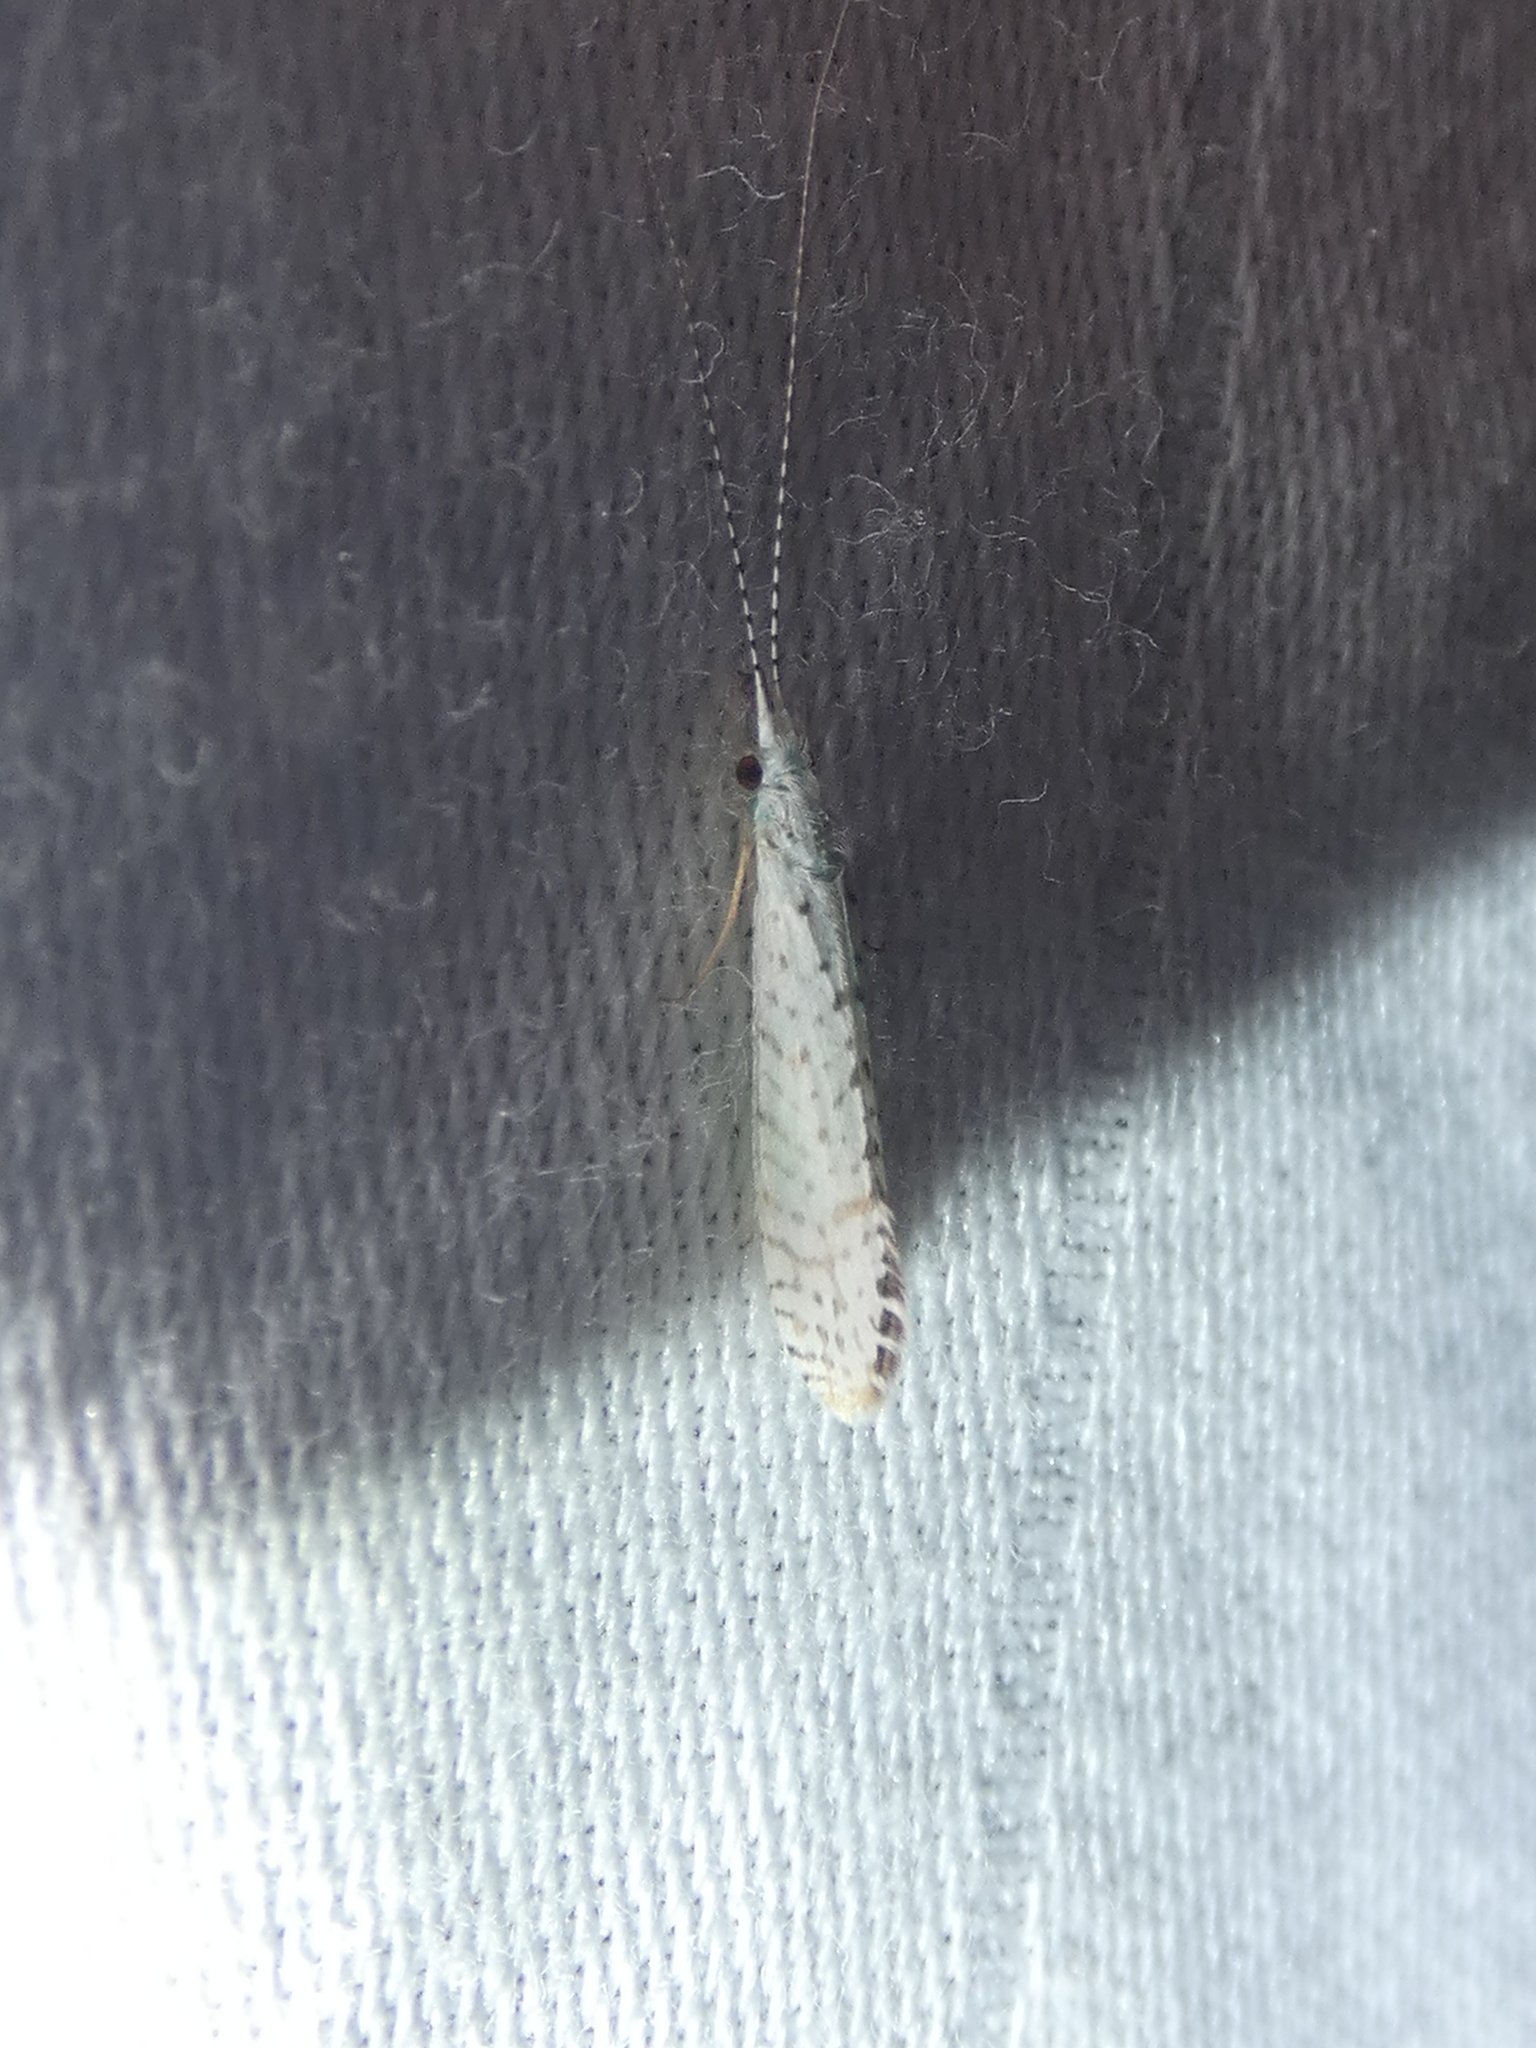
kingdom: Animalia
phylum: Arthropoda
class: Insecta
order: Trichoptera
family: Leptoceridae
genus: Nectopsyche
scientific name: Nectopsyche candida
